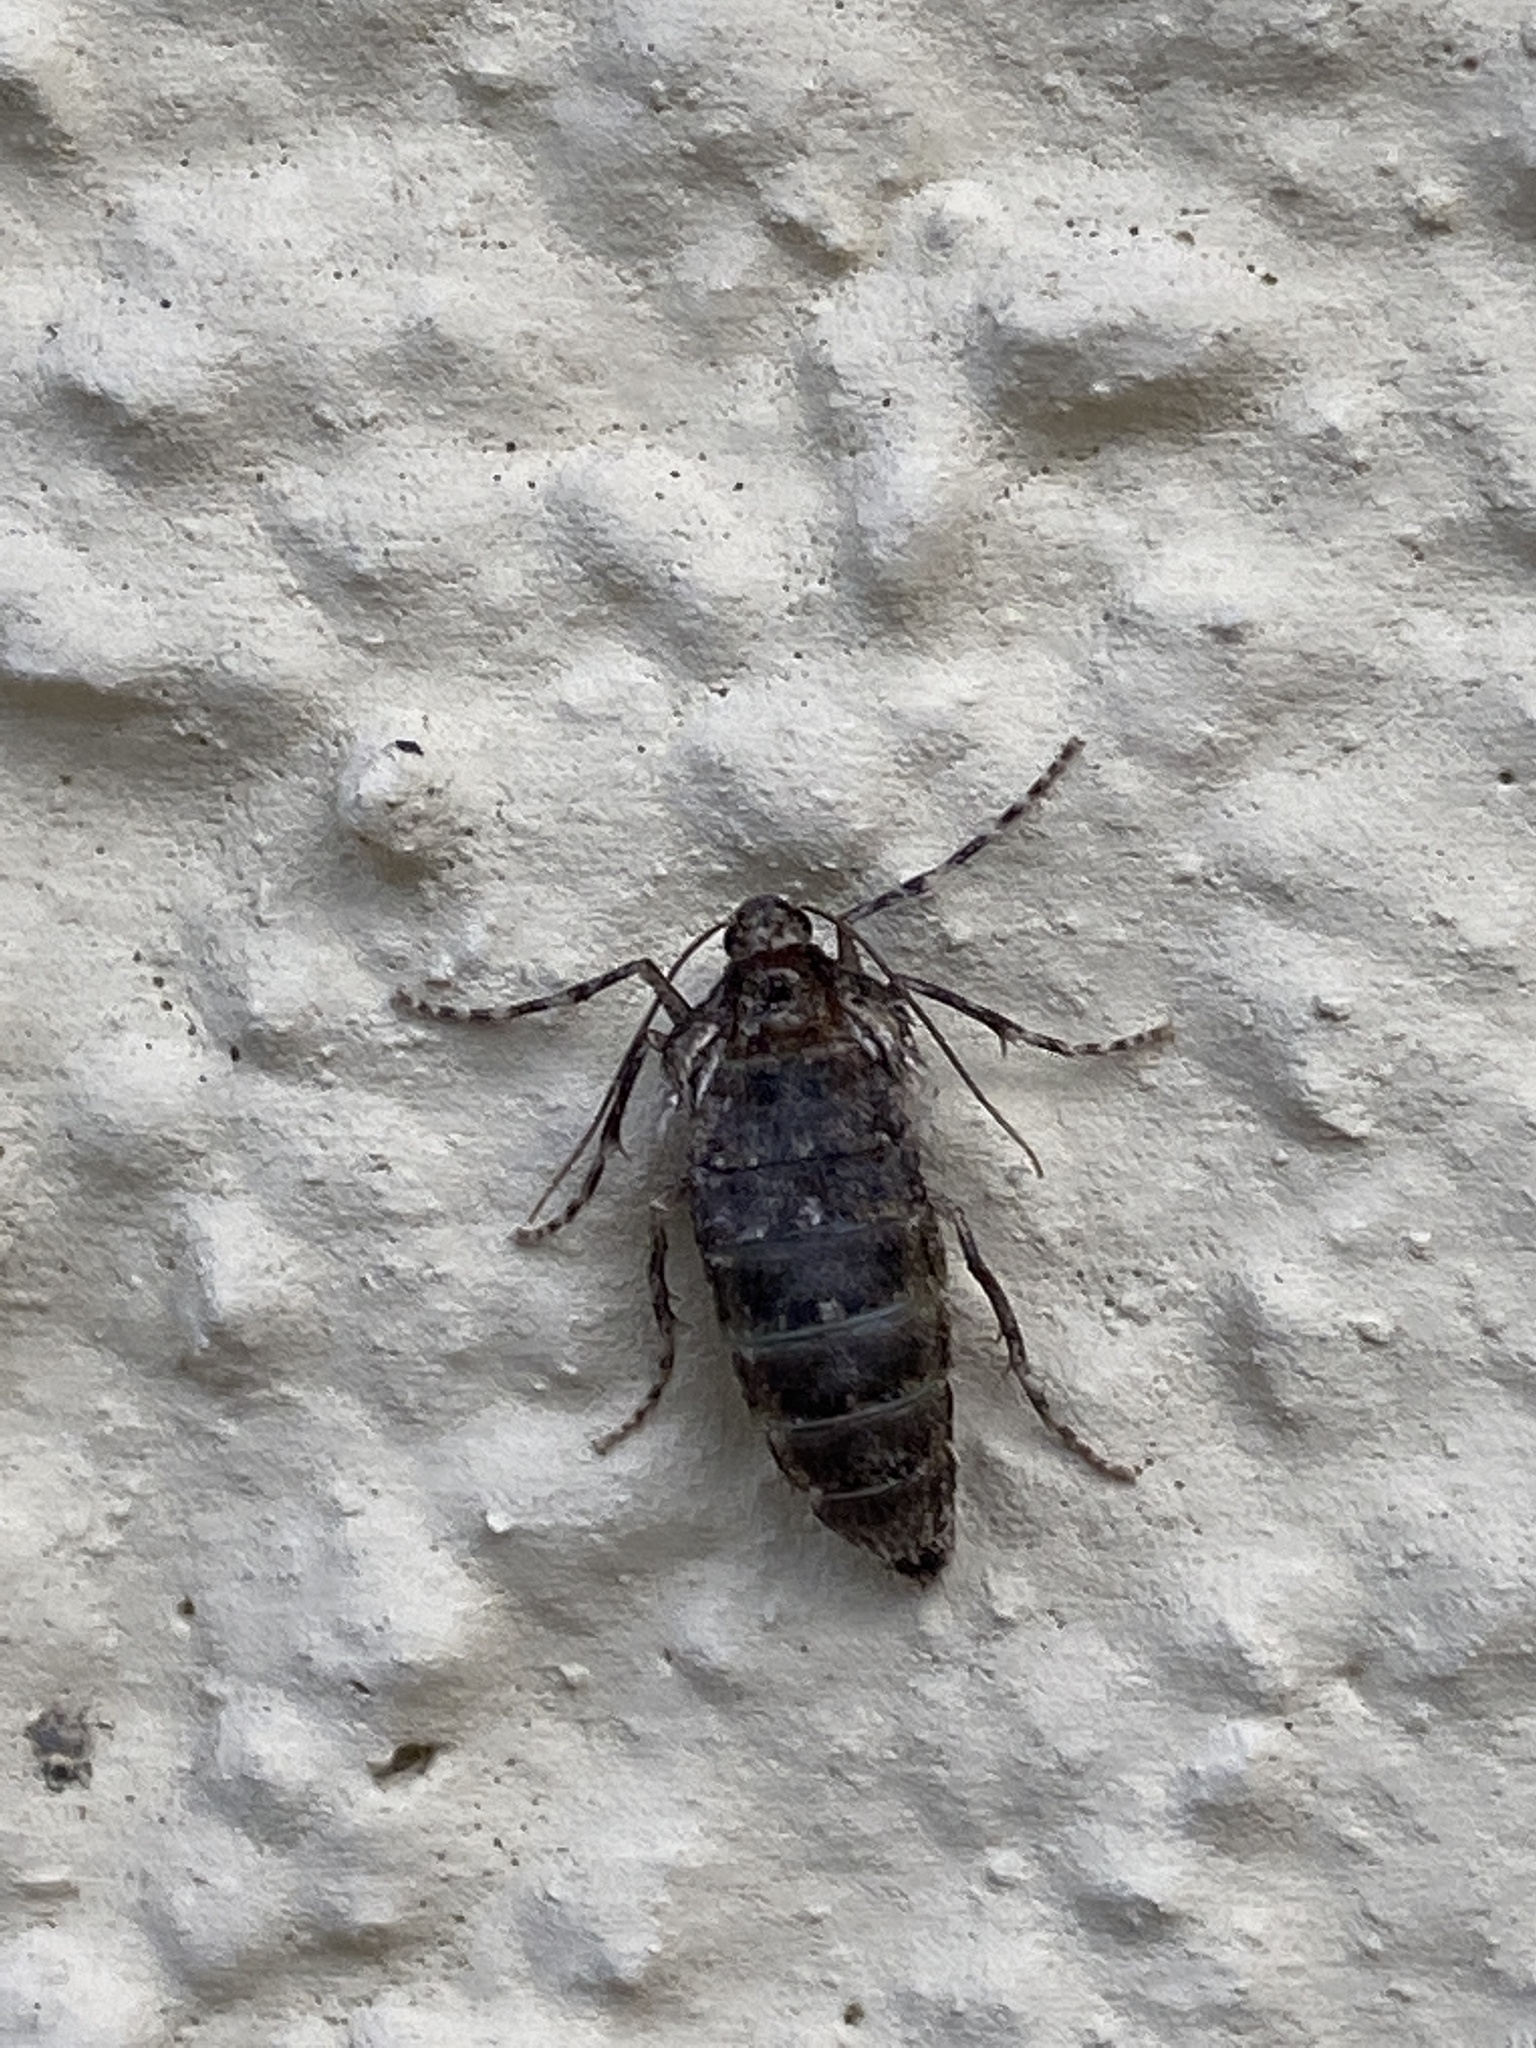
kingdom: Animalia
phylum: Arthropoda
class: Insecta
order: Lepidoptera
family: Geometridae
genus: Operophtera
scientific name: Operophtera brumata
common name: Winter moth
